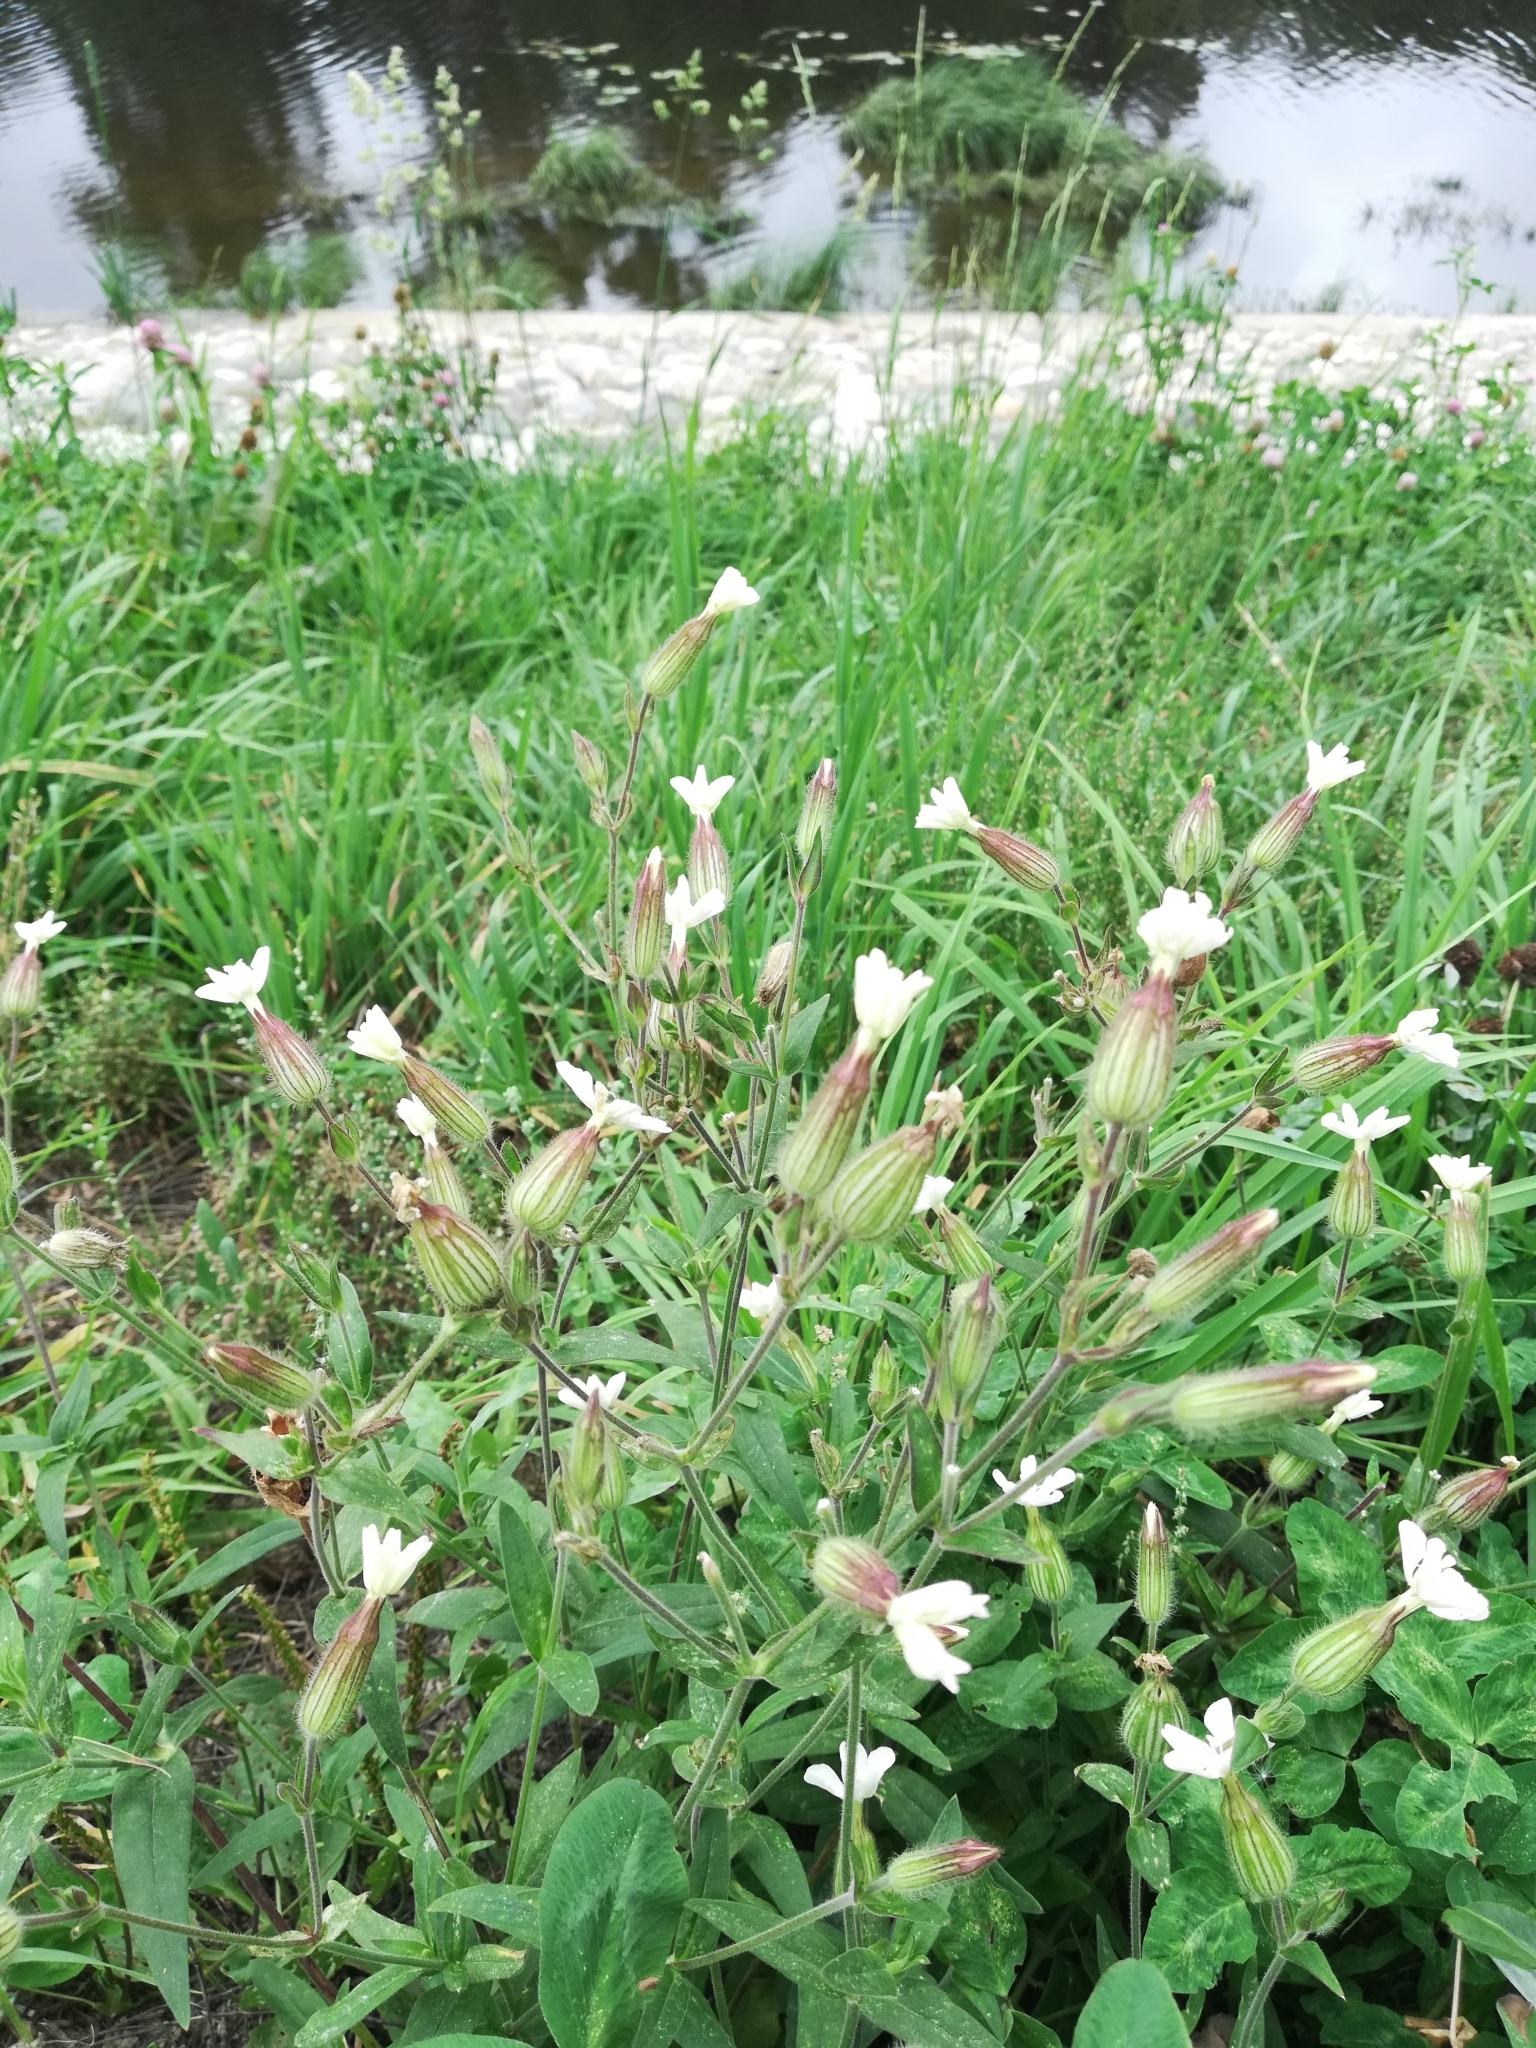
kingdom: Plantae
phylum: Tracheophyta
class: Magnoliopsida
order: Caryophyllales
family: Caryophyllaceae
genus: Silene
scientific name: Silene latifolia
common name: White campion
